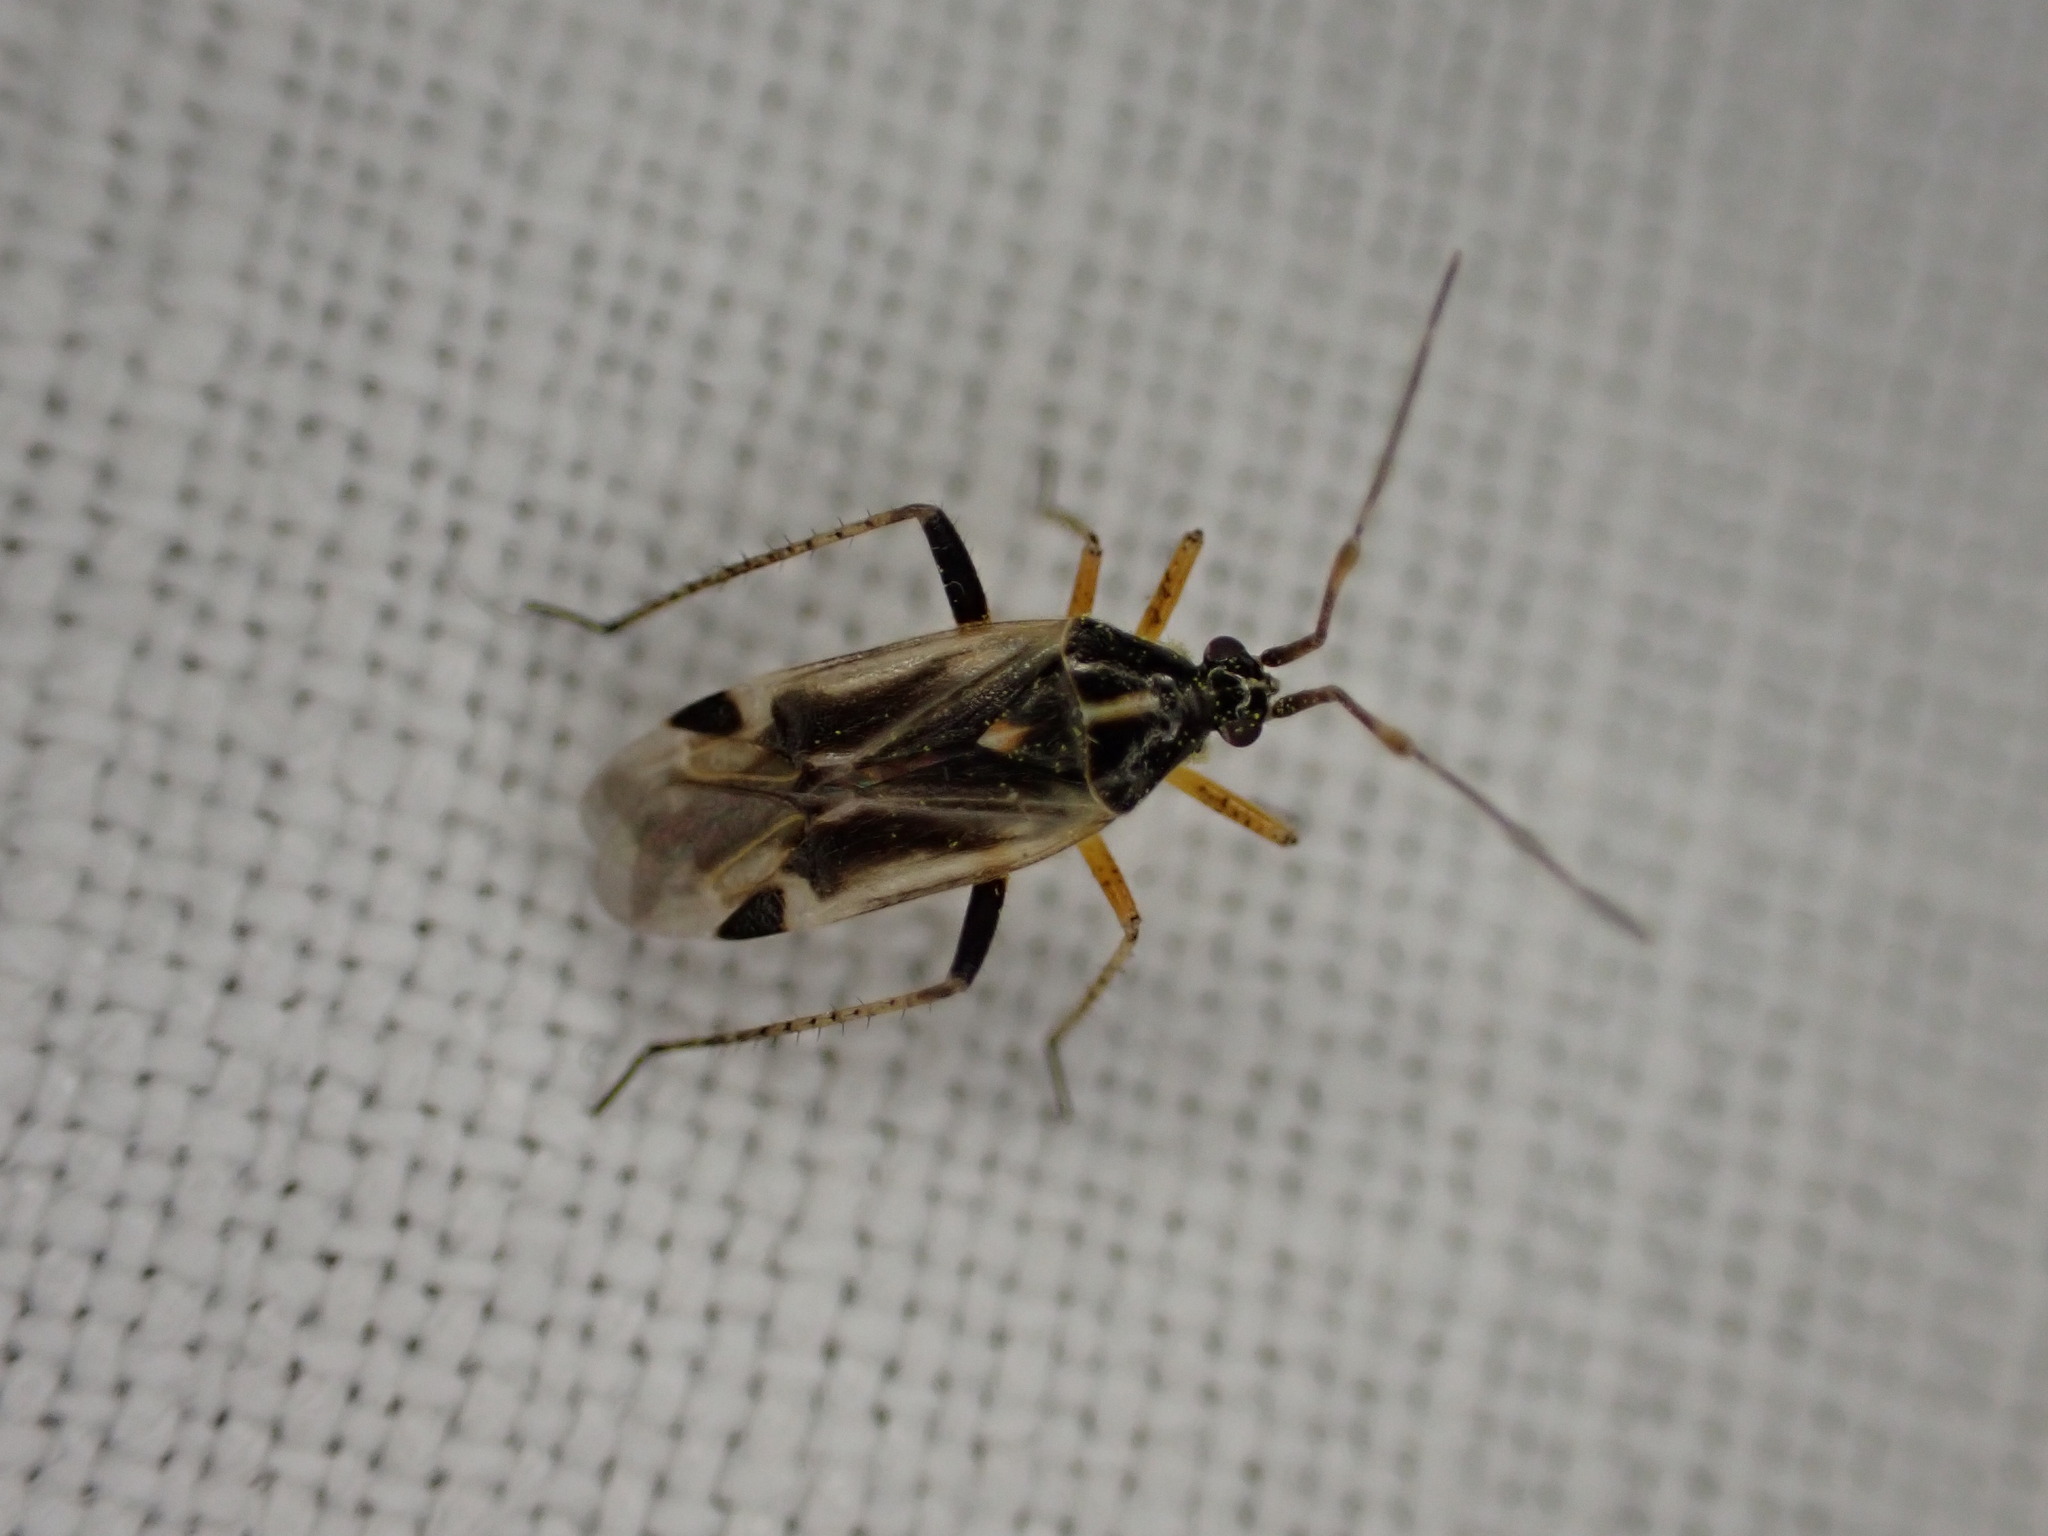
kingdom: Animalia
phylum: Arthropoda
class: Insecta
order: Hemiptera
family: Miridae
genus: Harpocera
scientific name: Harpocera thoracica
